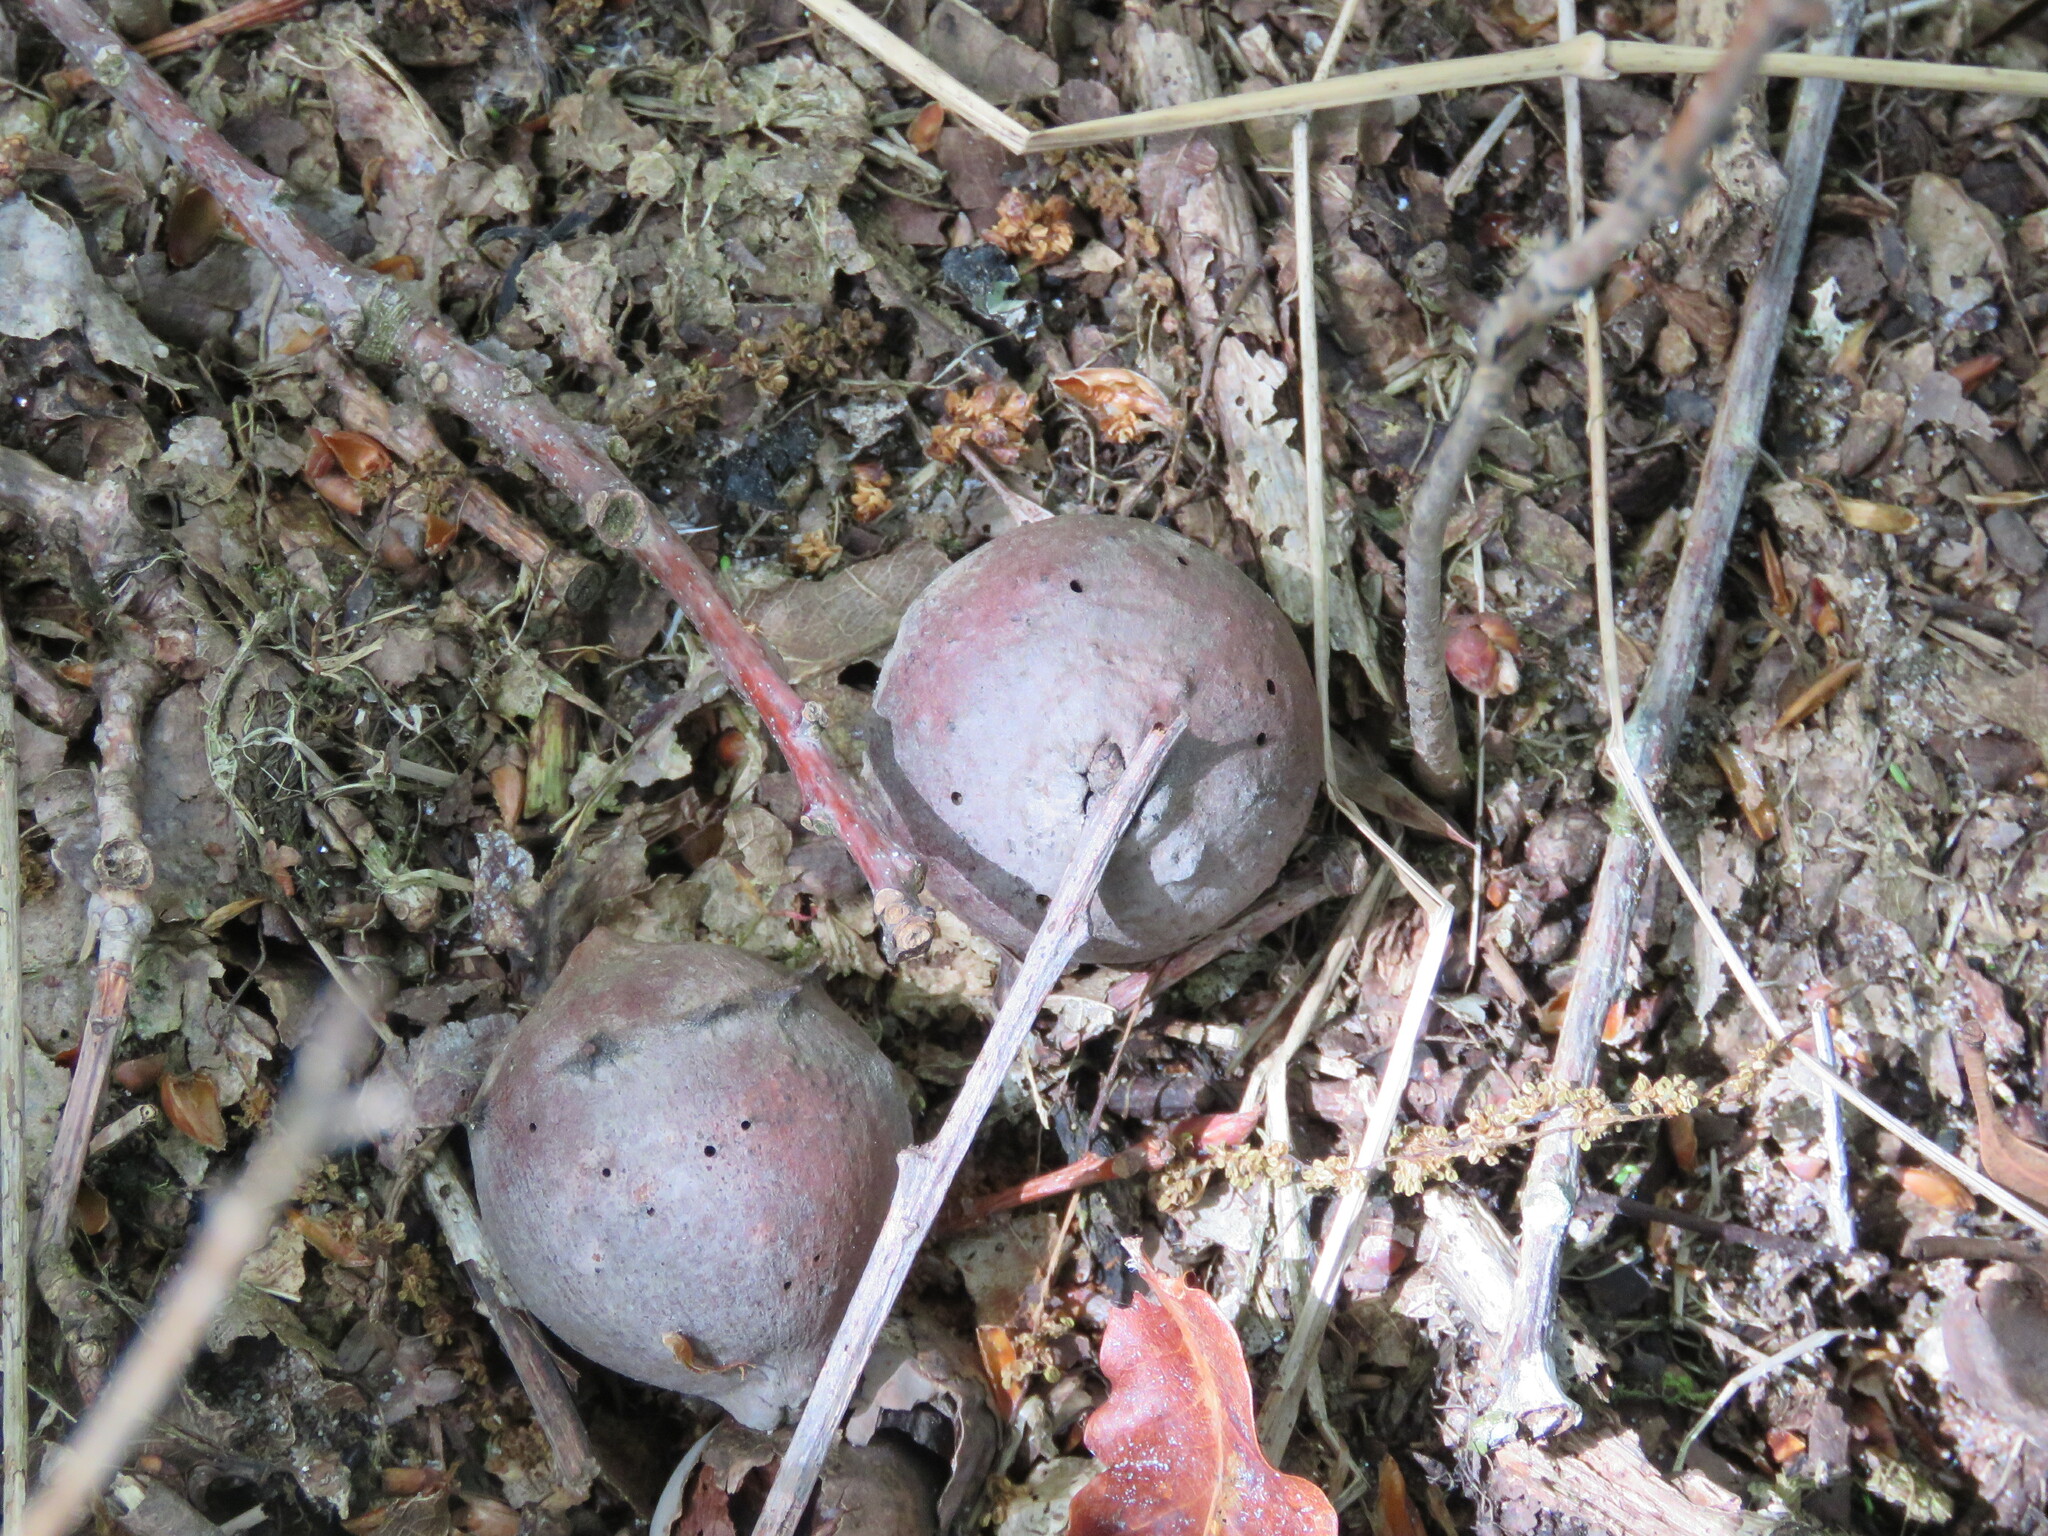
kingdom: Animalia
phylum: Arthropoda
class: Insecta
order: Hymenoptera
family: Cynipidae
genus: Andricus
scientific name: Andricus quercustozae
